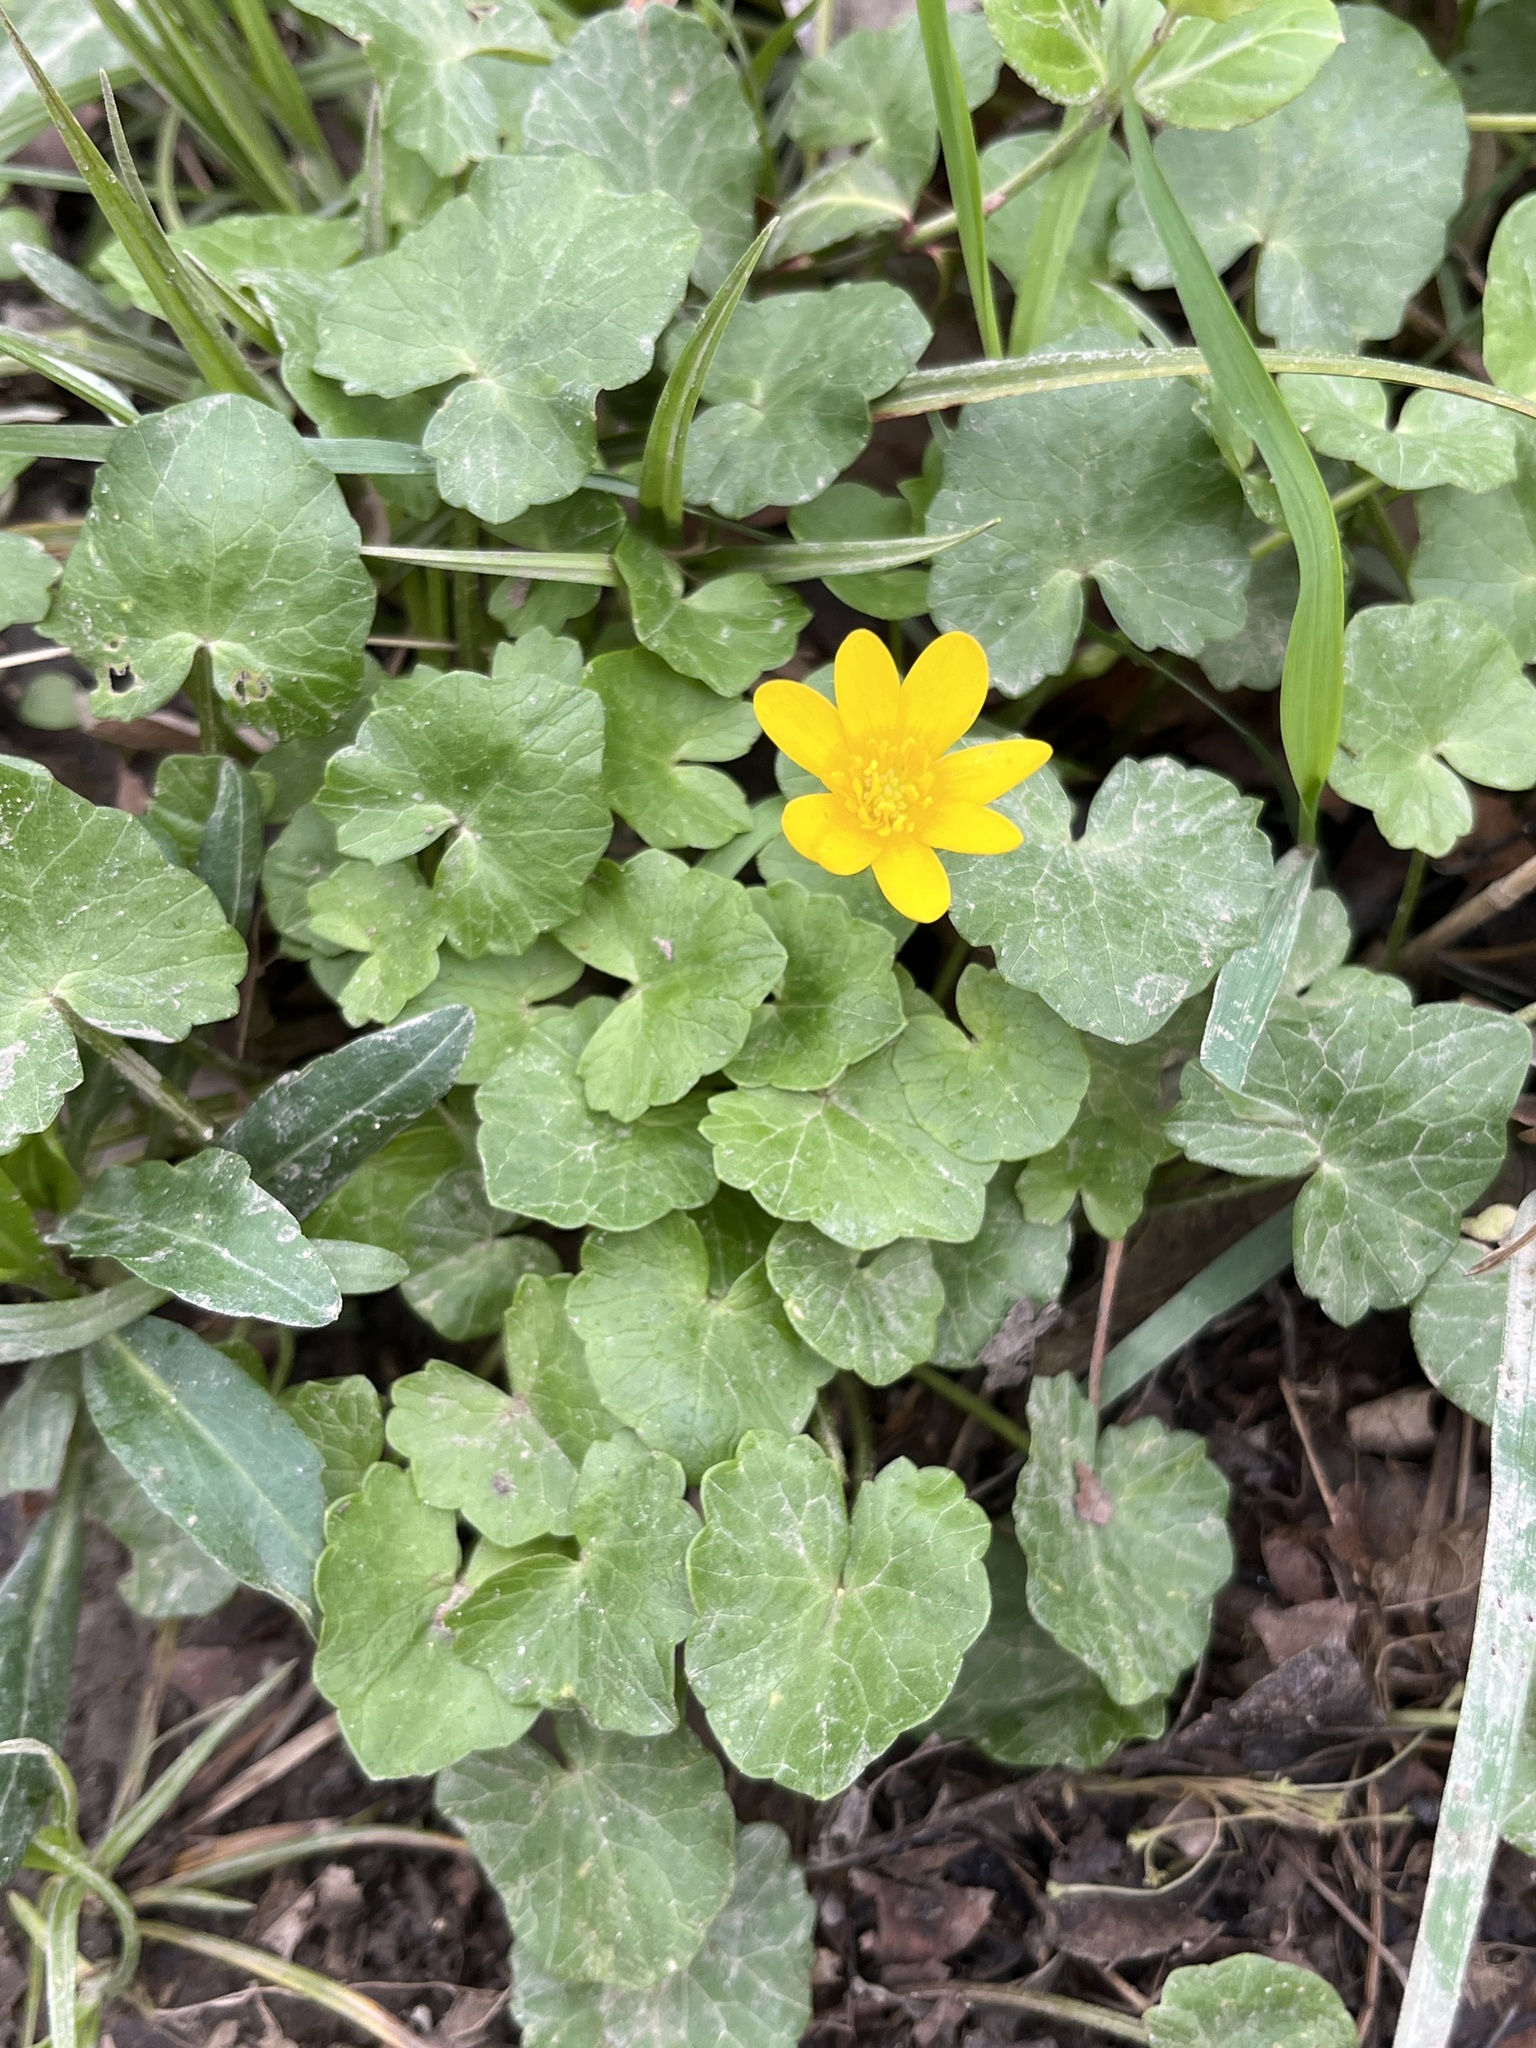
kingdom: Plantae
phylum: Tracheophyta
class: Magnoliopsida
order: Ranunculales
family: Ranunculaceae
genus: Ficaria
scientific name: Ficaria verna
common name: Lesser celandine
